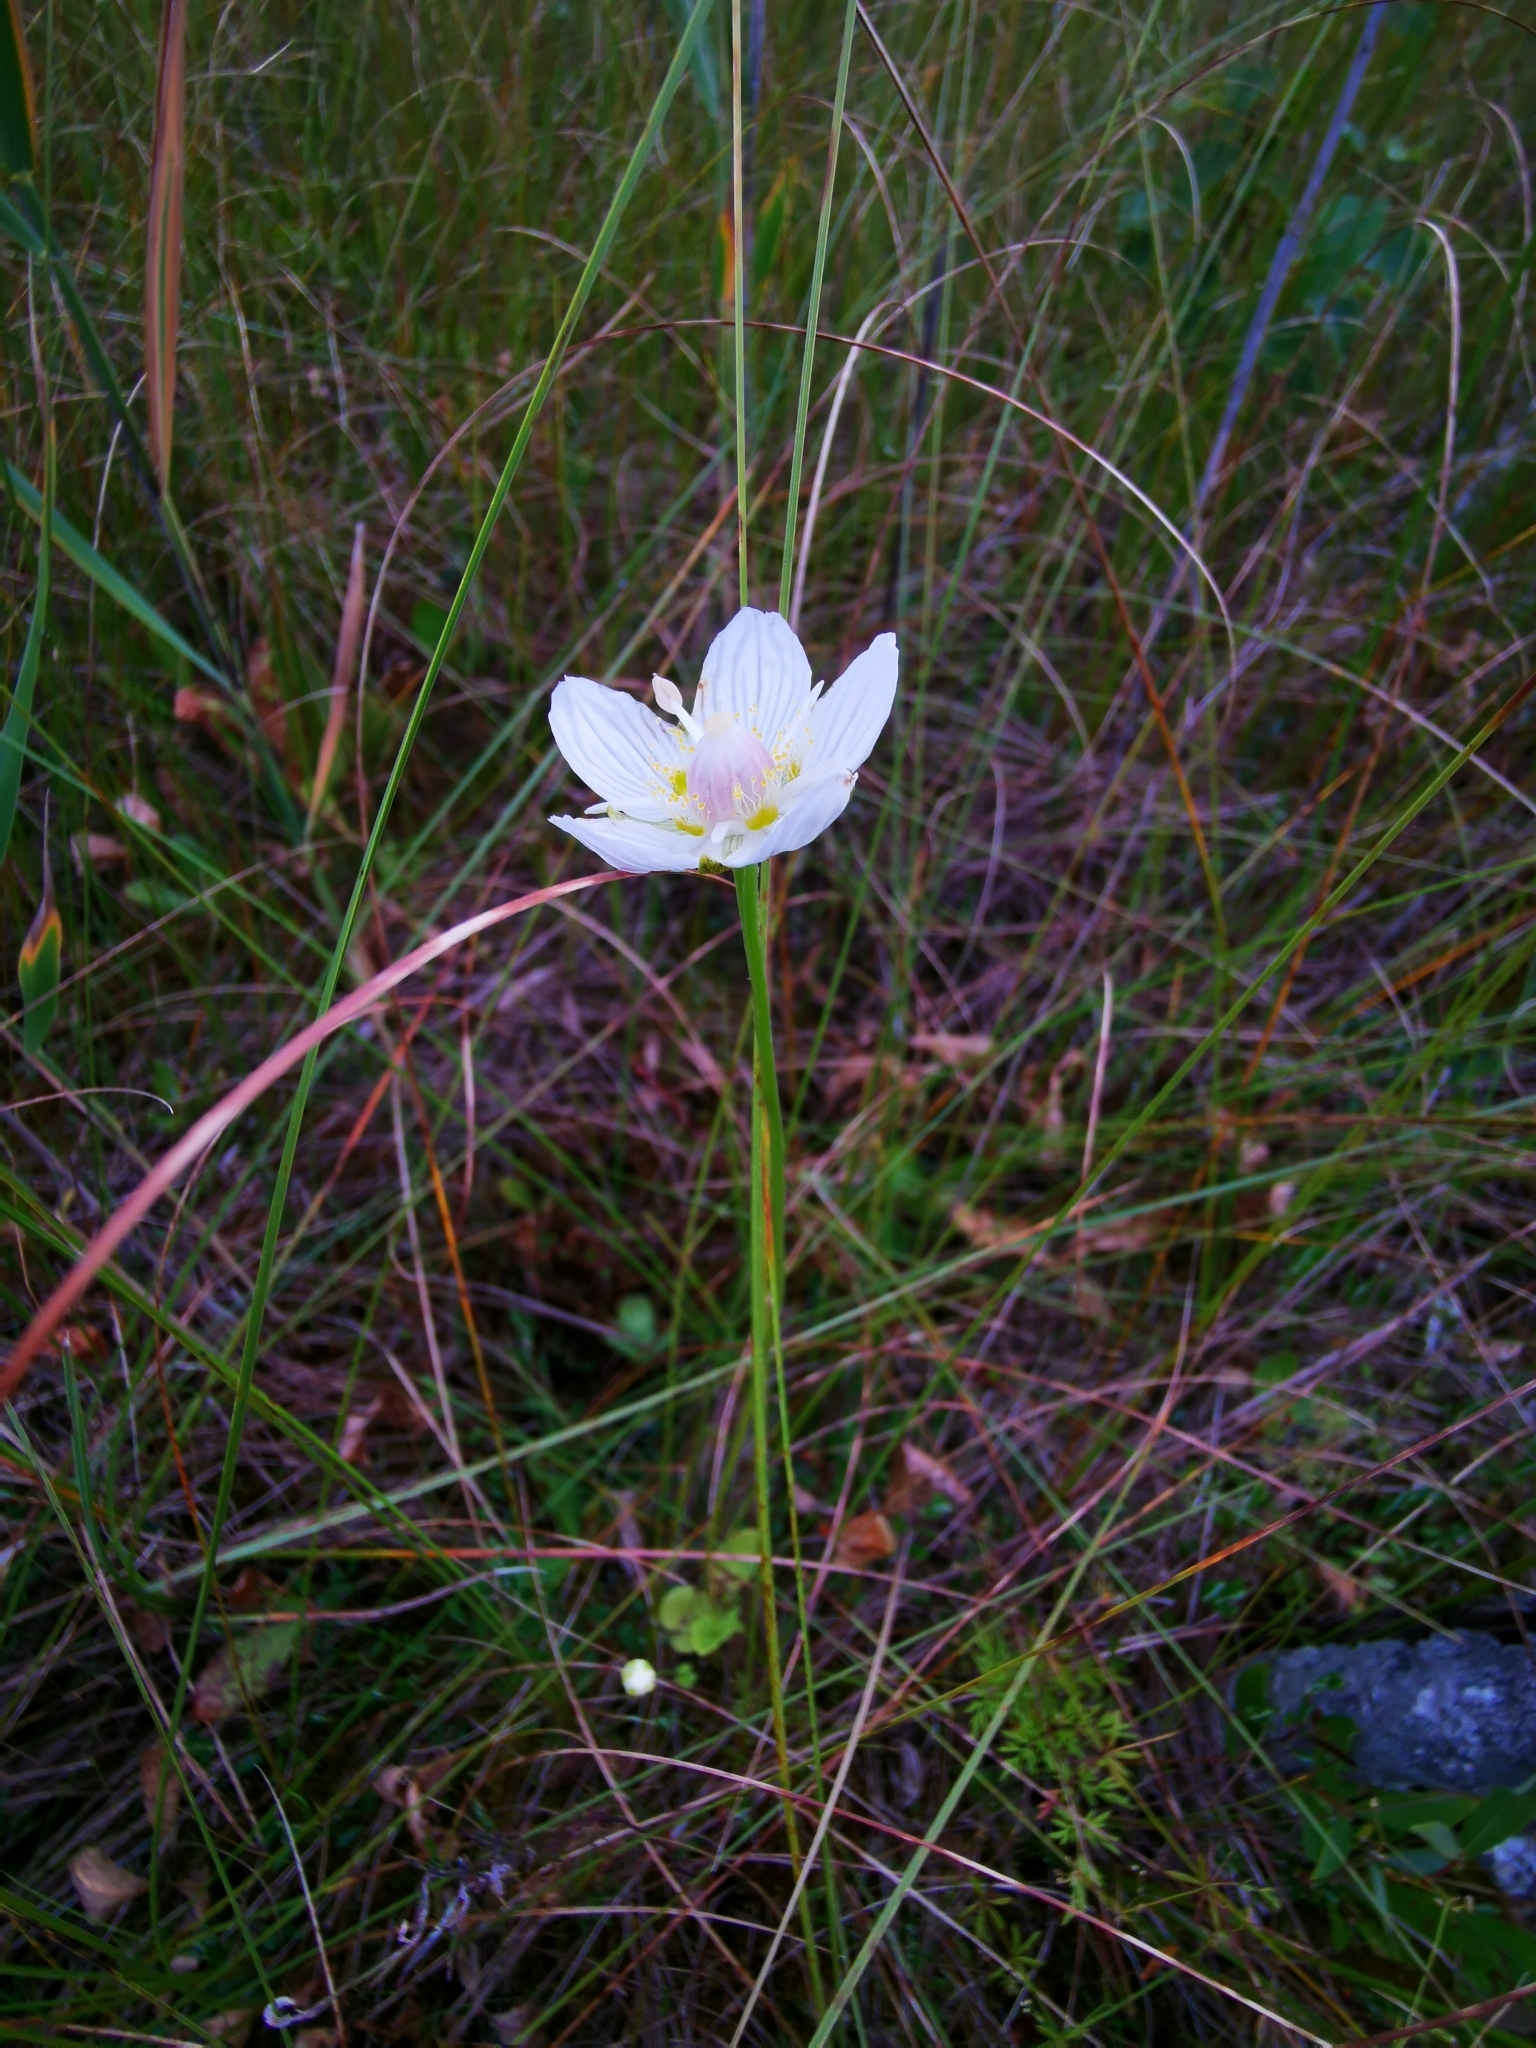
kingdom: Plantae
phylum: Tracheophyta
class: Magnoliopsida
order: Celastrales
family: Parnassiaceae
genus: Parnassia
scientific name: Parnassia palustris
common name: Grass-of-parnassus
